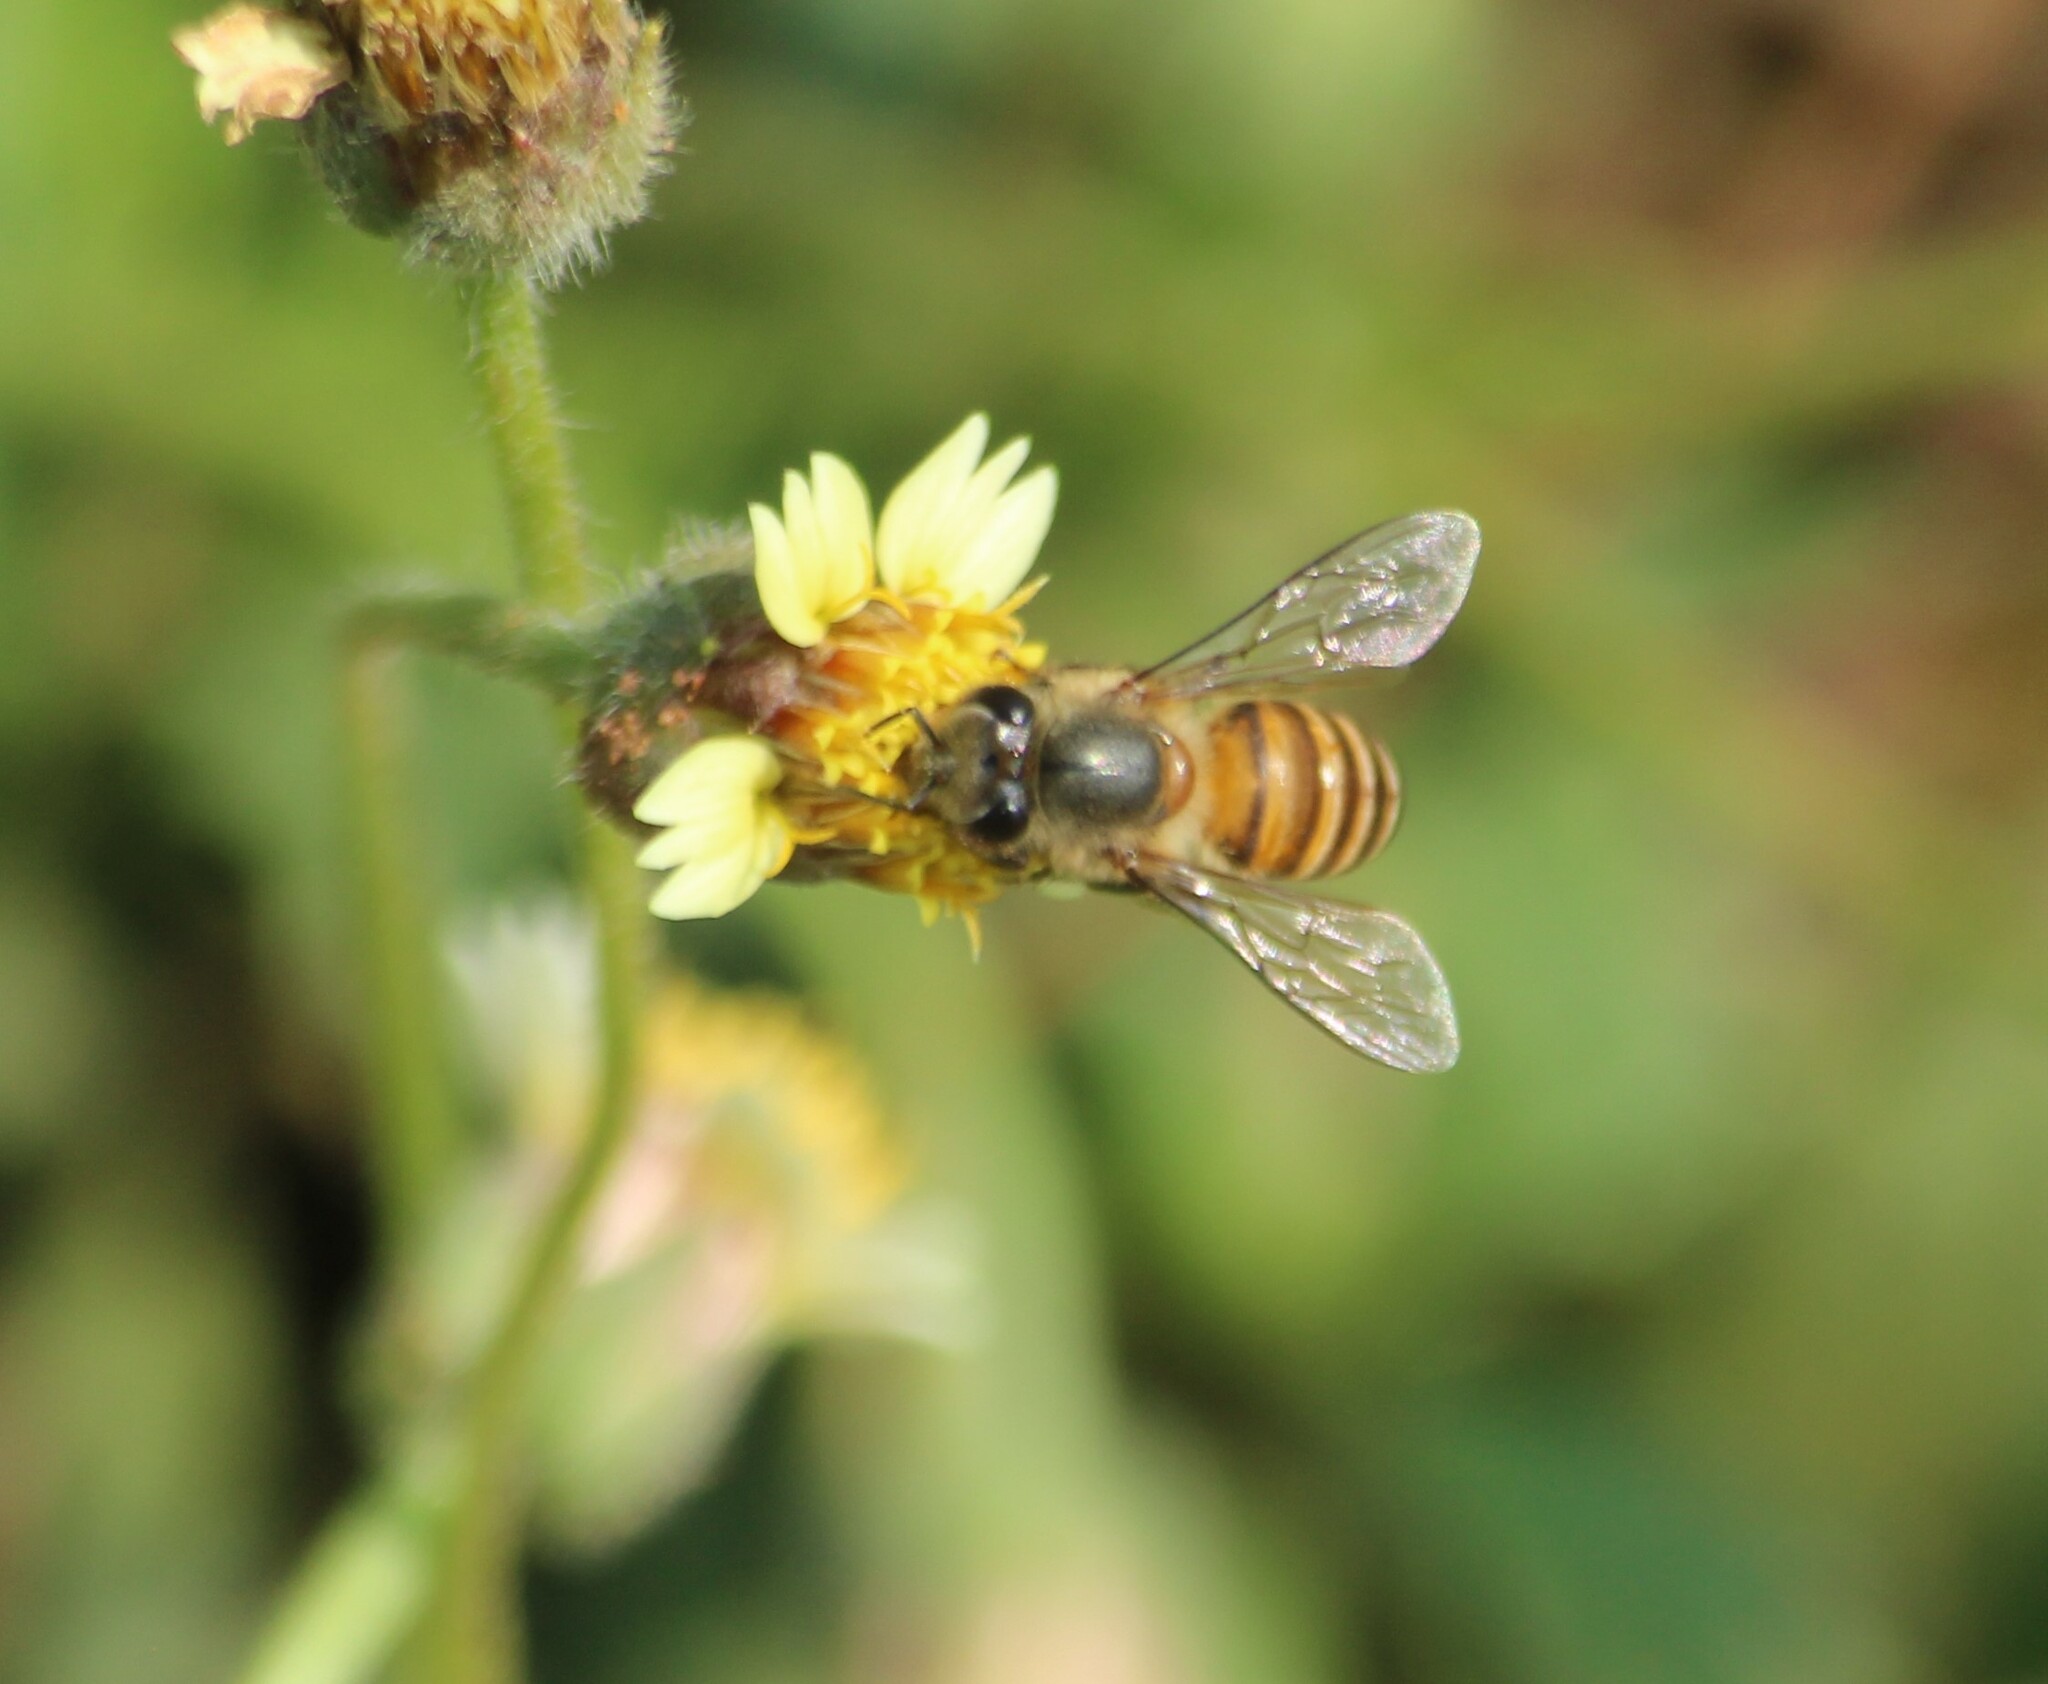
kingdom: Animalia
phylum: Arthropoda
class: Insecta
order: Hymenoptera
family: Apidae
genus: Apis
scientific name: Apis cerana
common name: Honey bee
